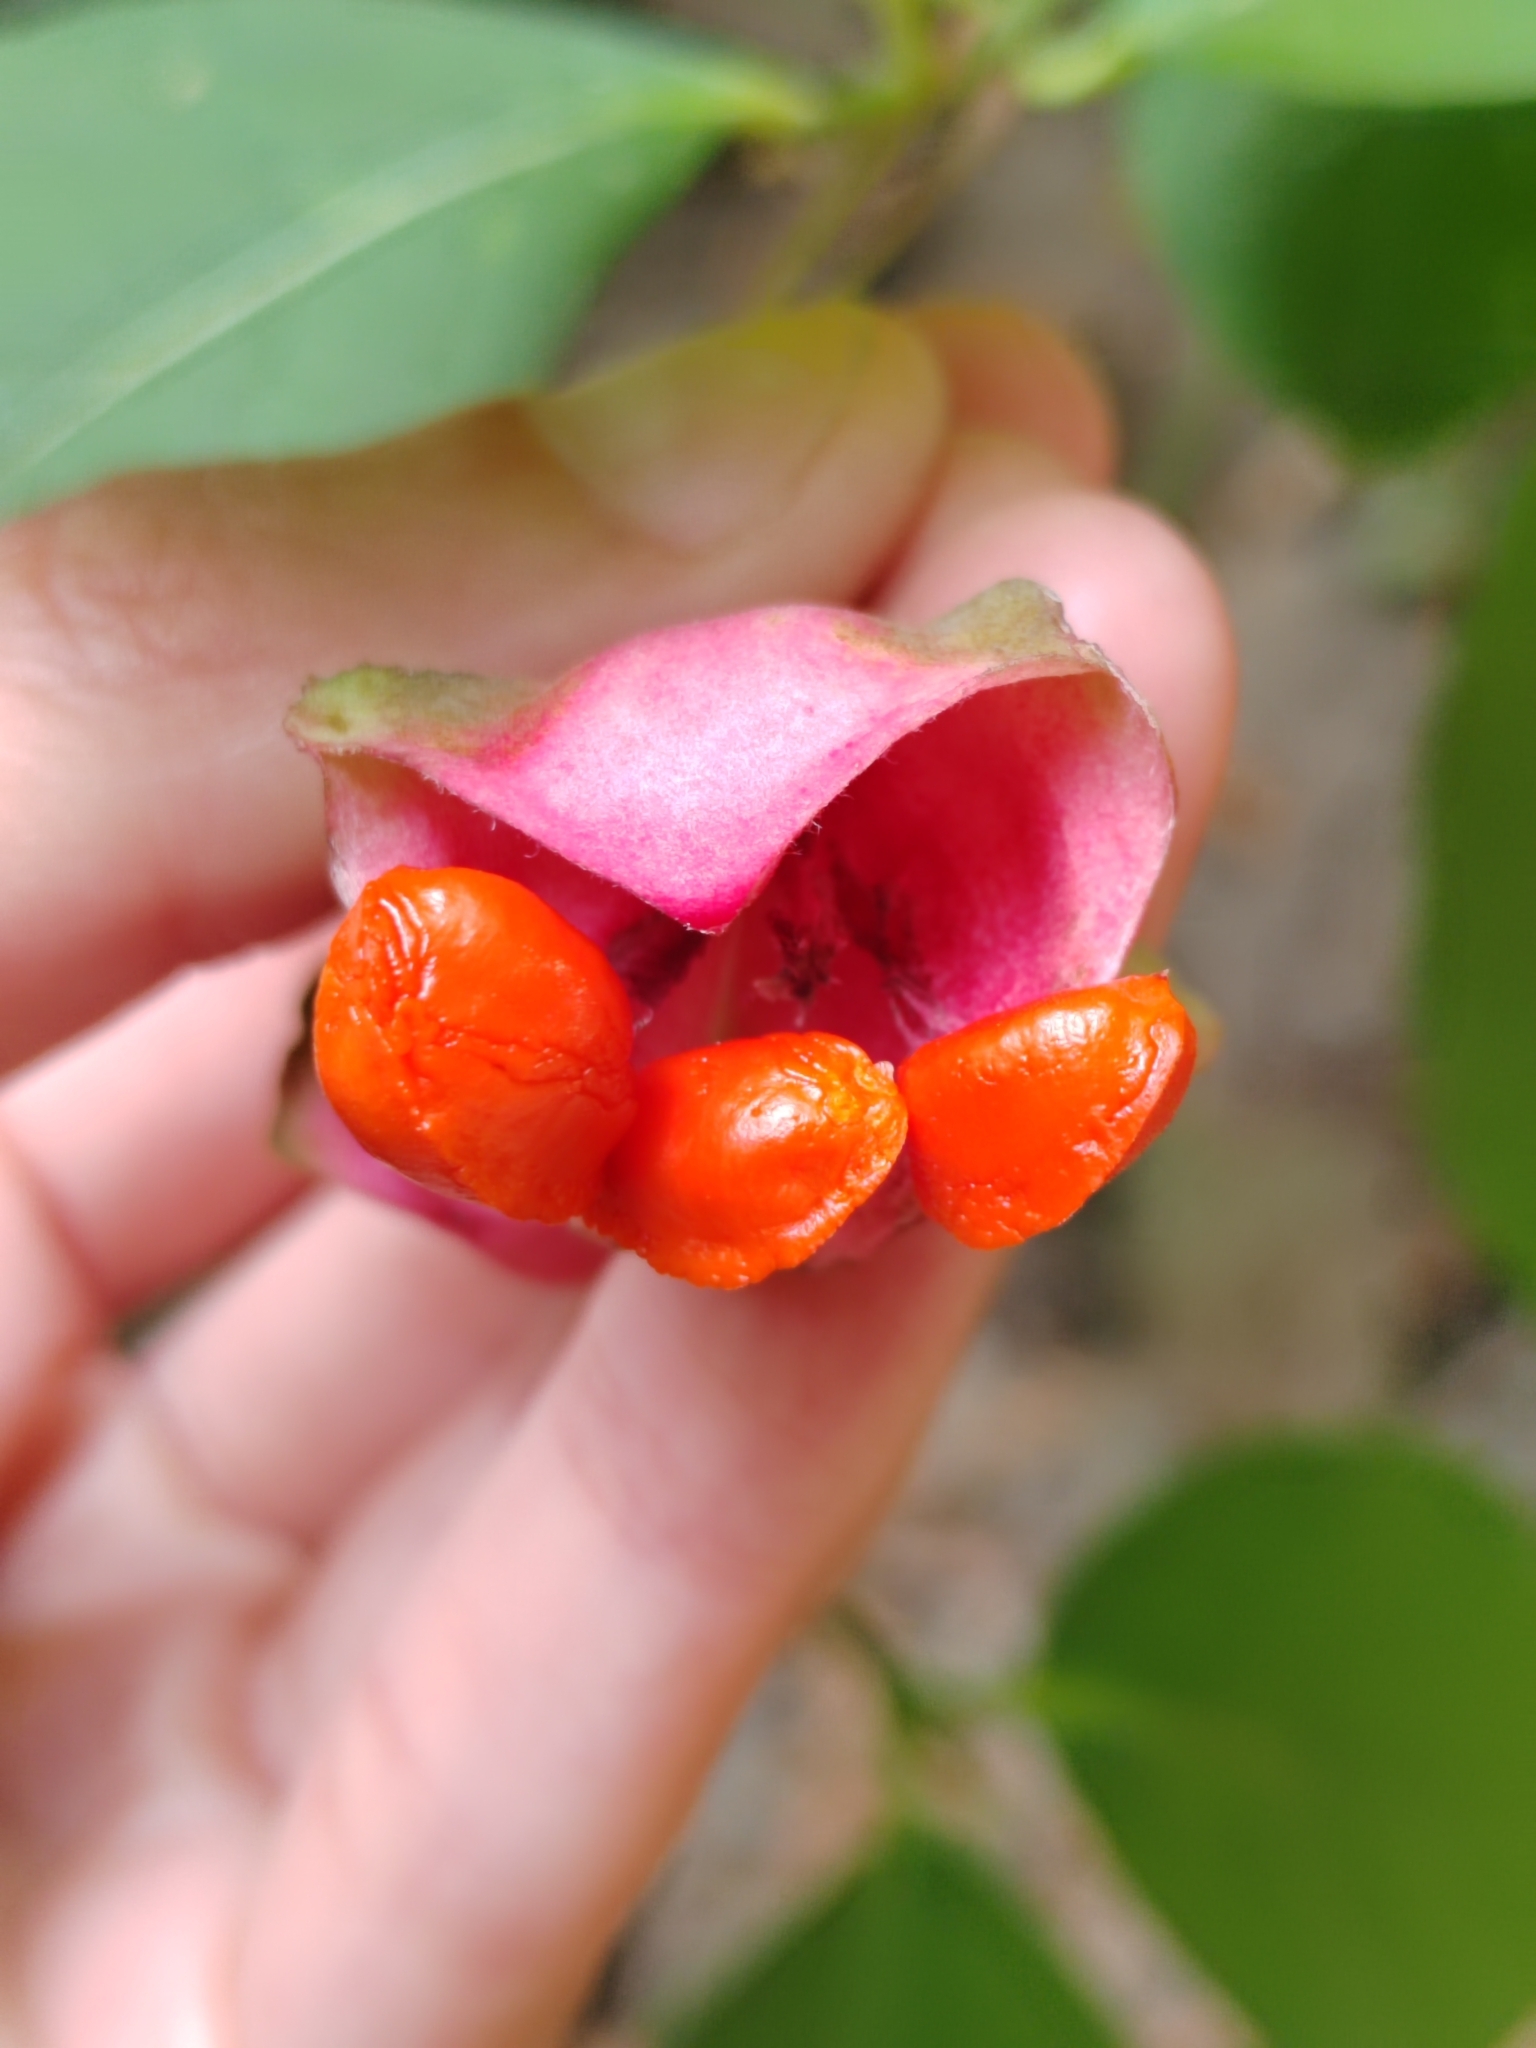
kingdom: Plantae
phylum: Tracheophyta
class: Magnoliopsida
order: Celastrales
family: Celastraceae
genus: Euonymus
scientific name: Euonymus latifolius
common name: Large-leaved spindle
